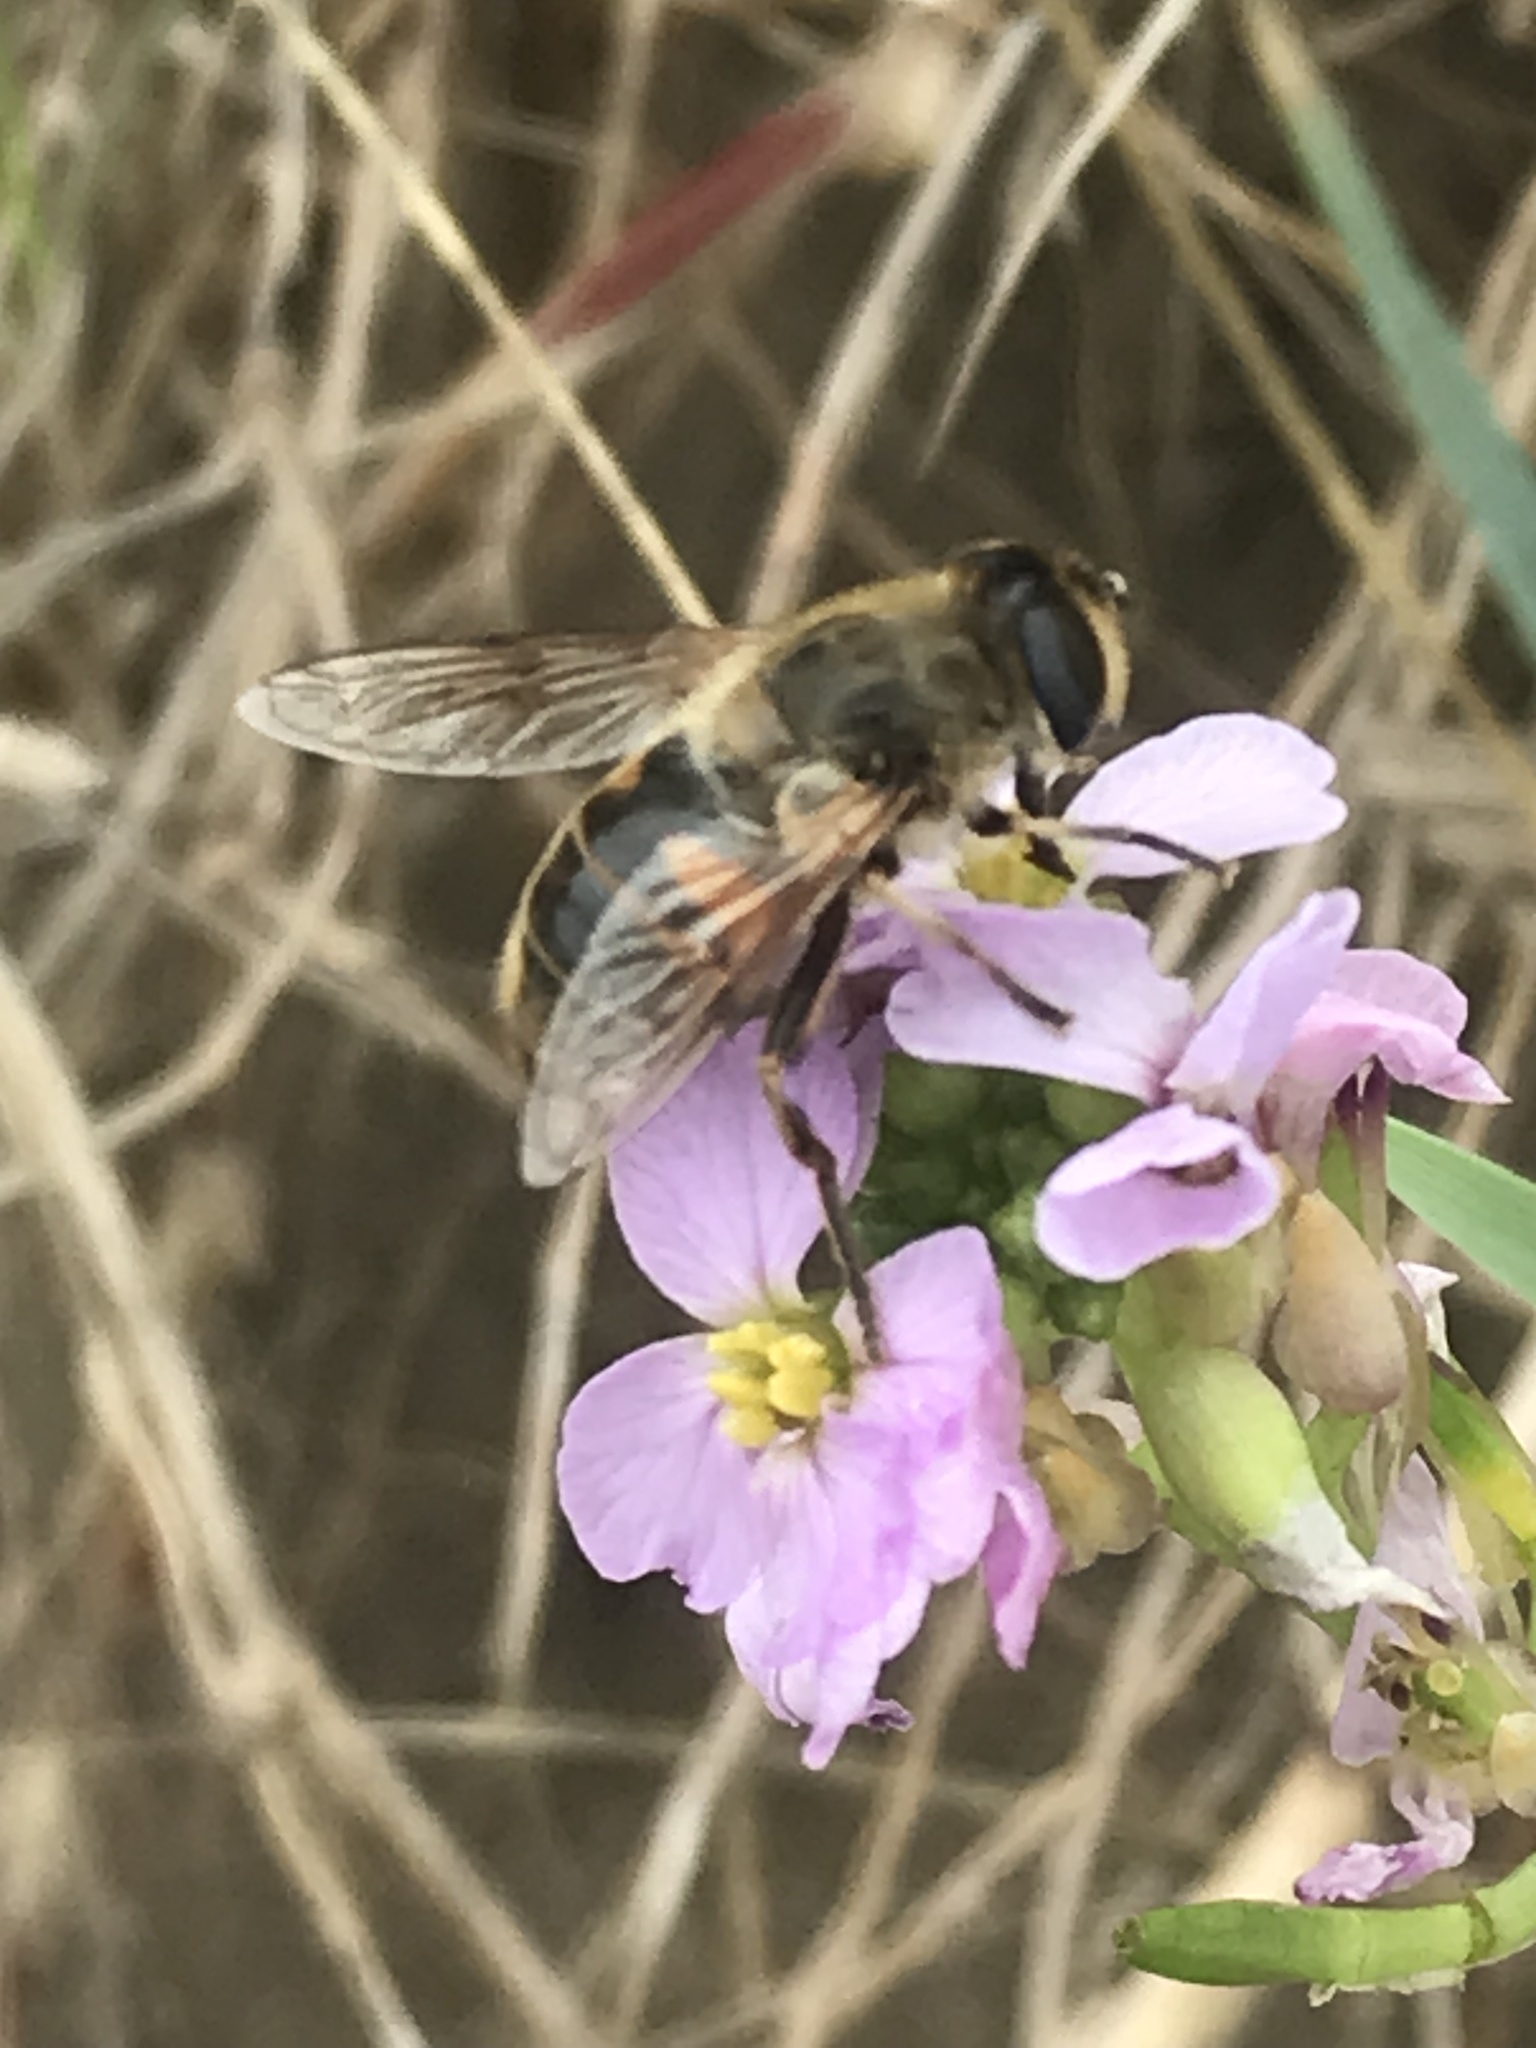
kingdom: Animalia
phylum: Arthropoda
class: Insecta
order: Diptera
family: Syrphidae
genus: Eristalis
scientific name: Eristalis tenax
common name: Drone fly
